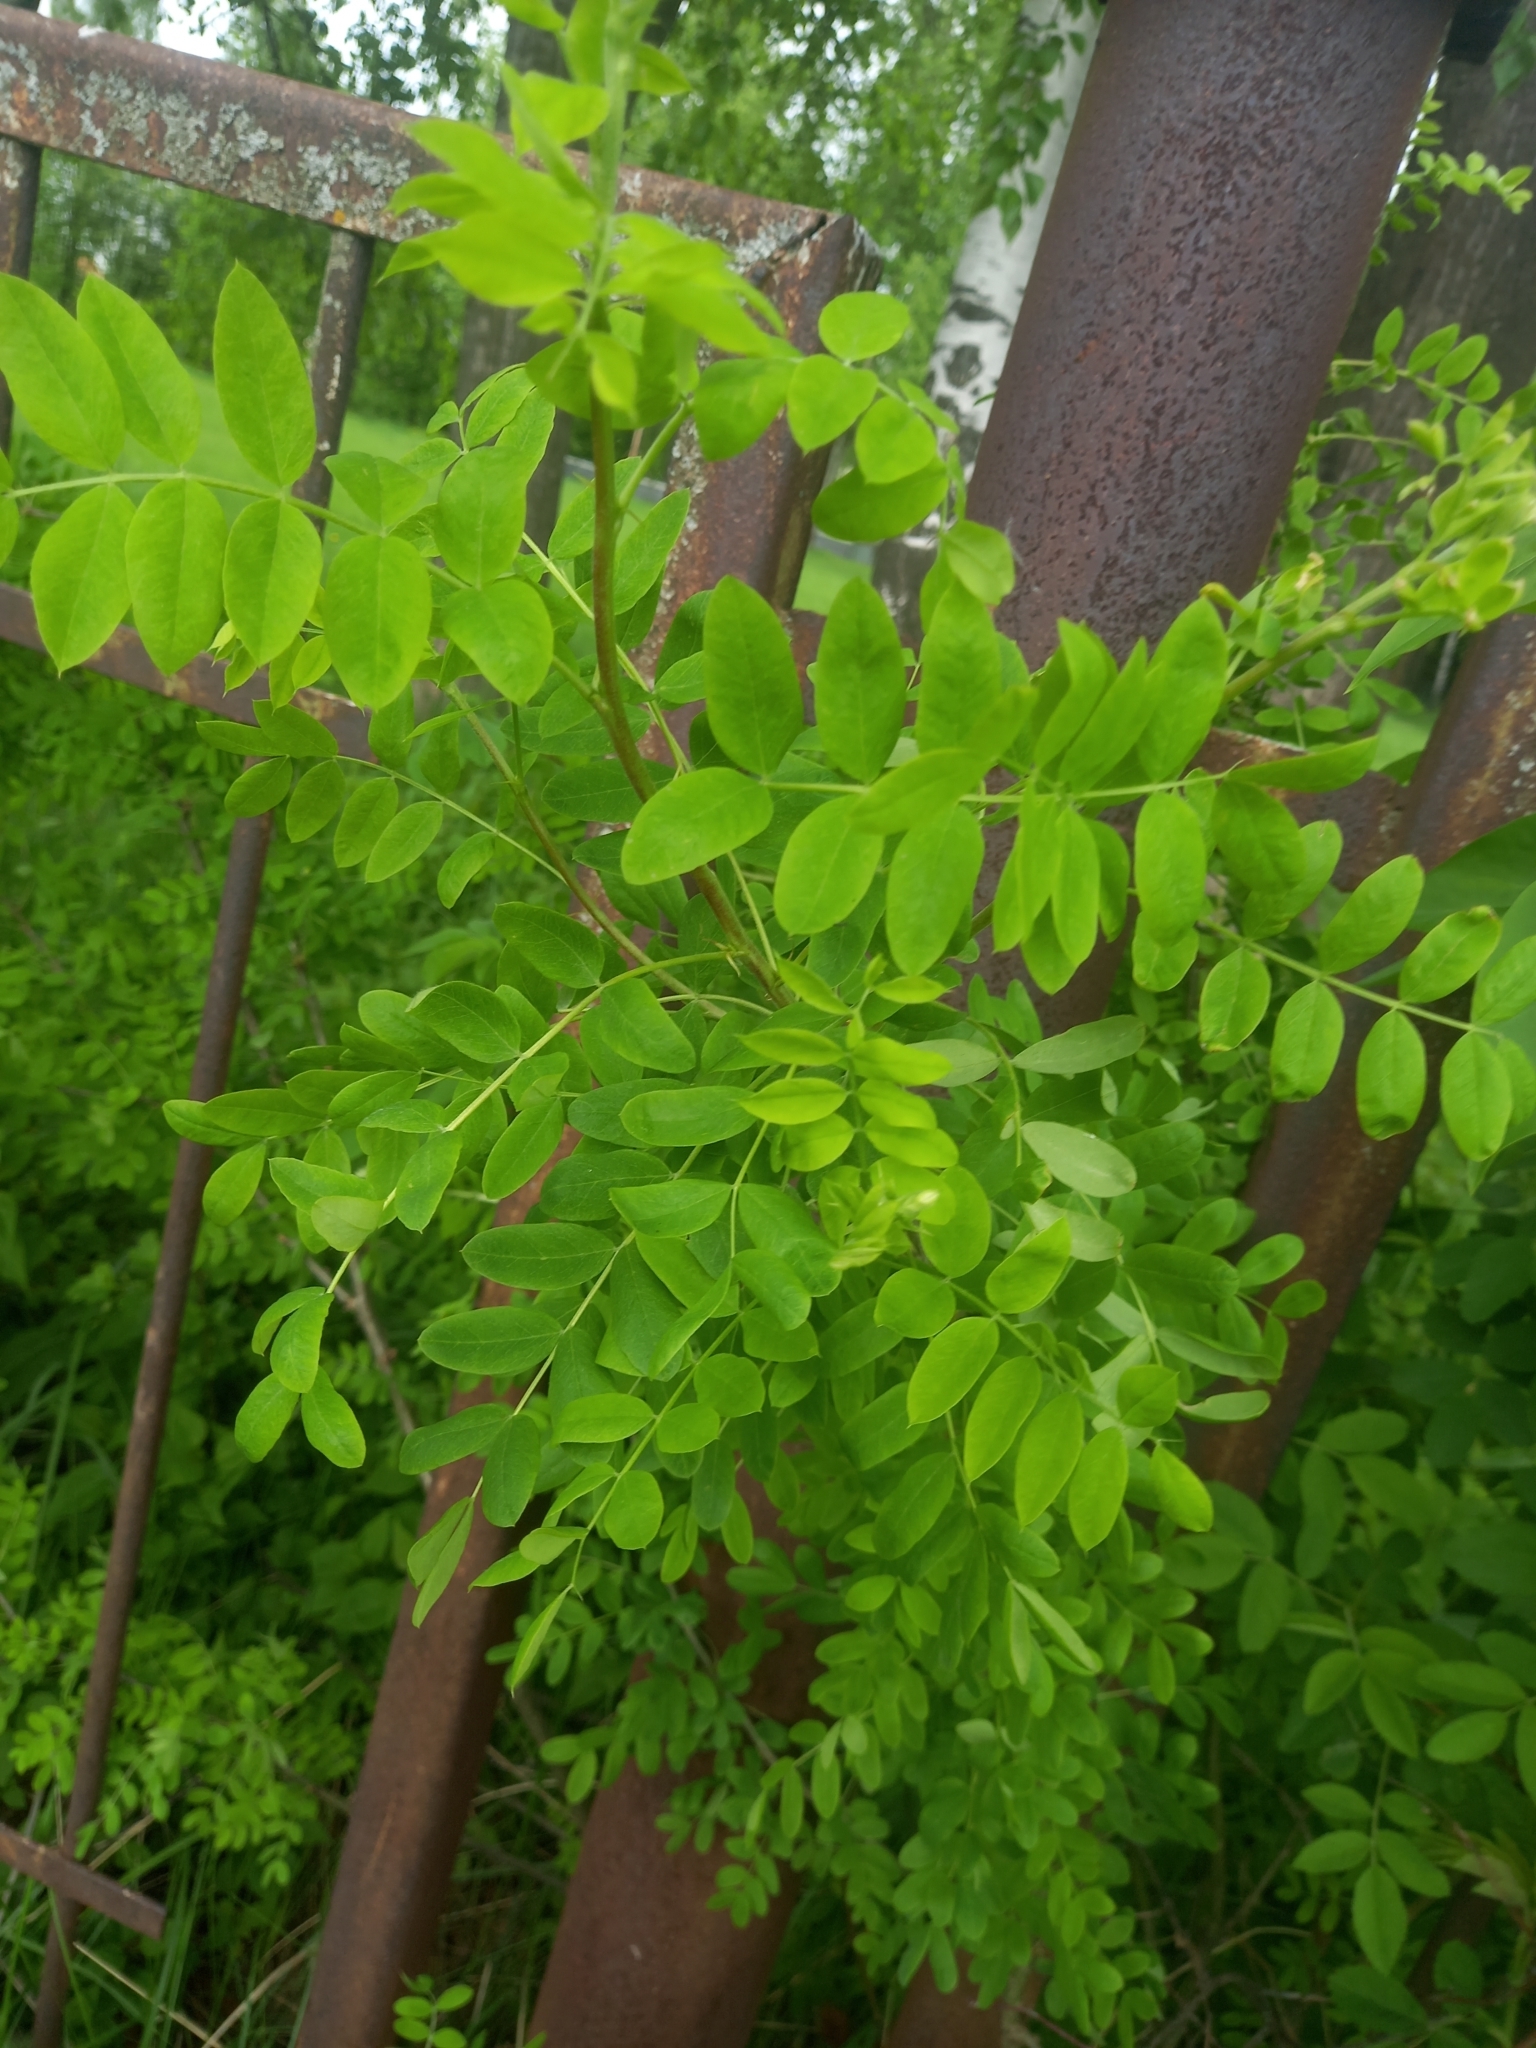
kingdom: Plantae
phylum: Tracheophyta
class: Magnoliopsida
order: Fabales
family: Fabaceae
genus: Robinia
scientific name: Robinia pseudoacacia
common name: Black locust
